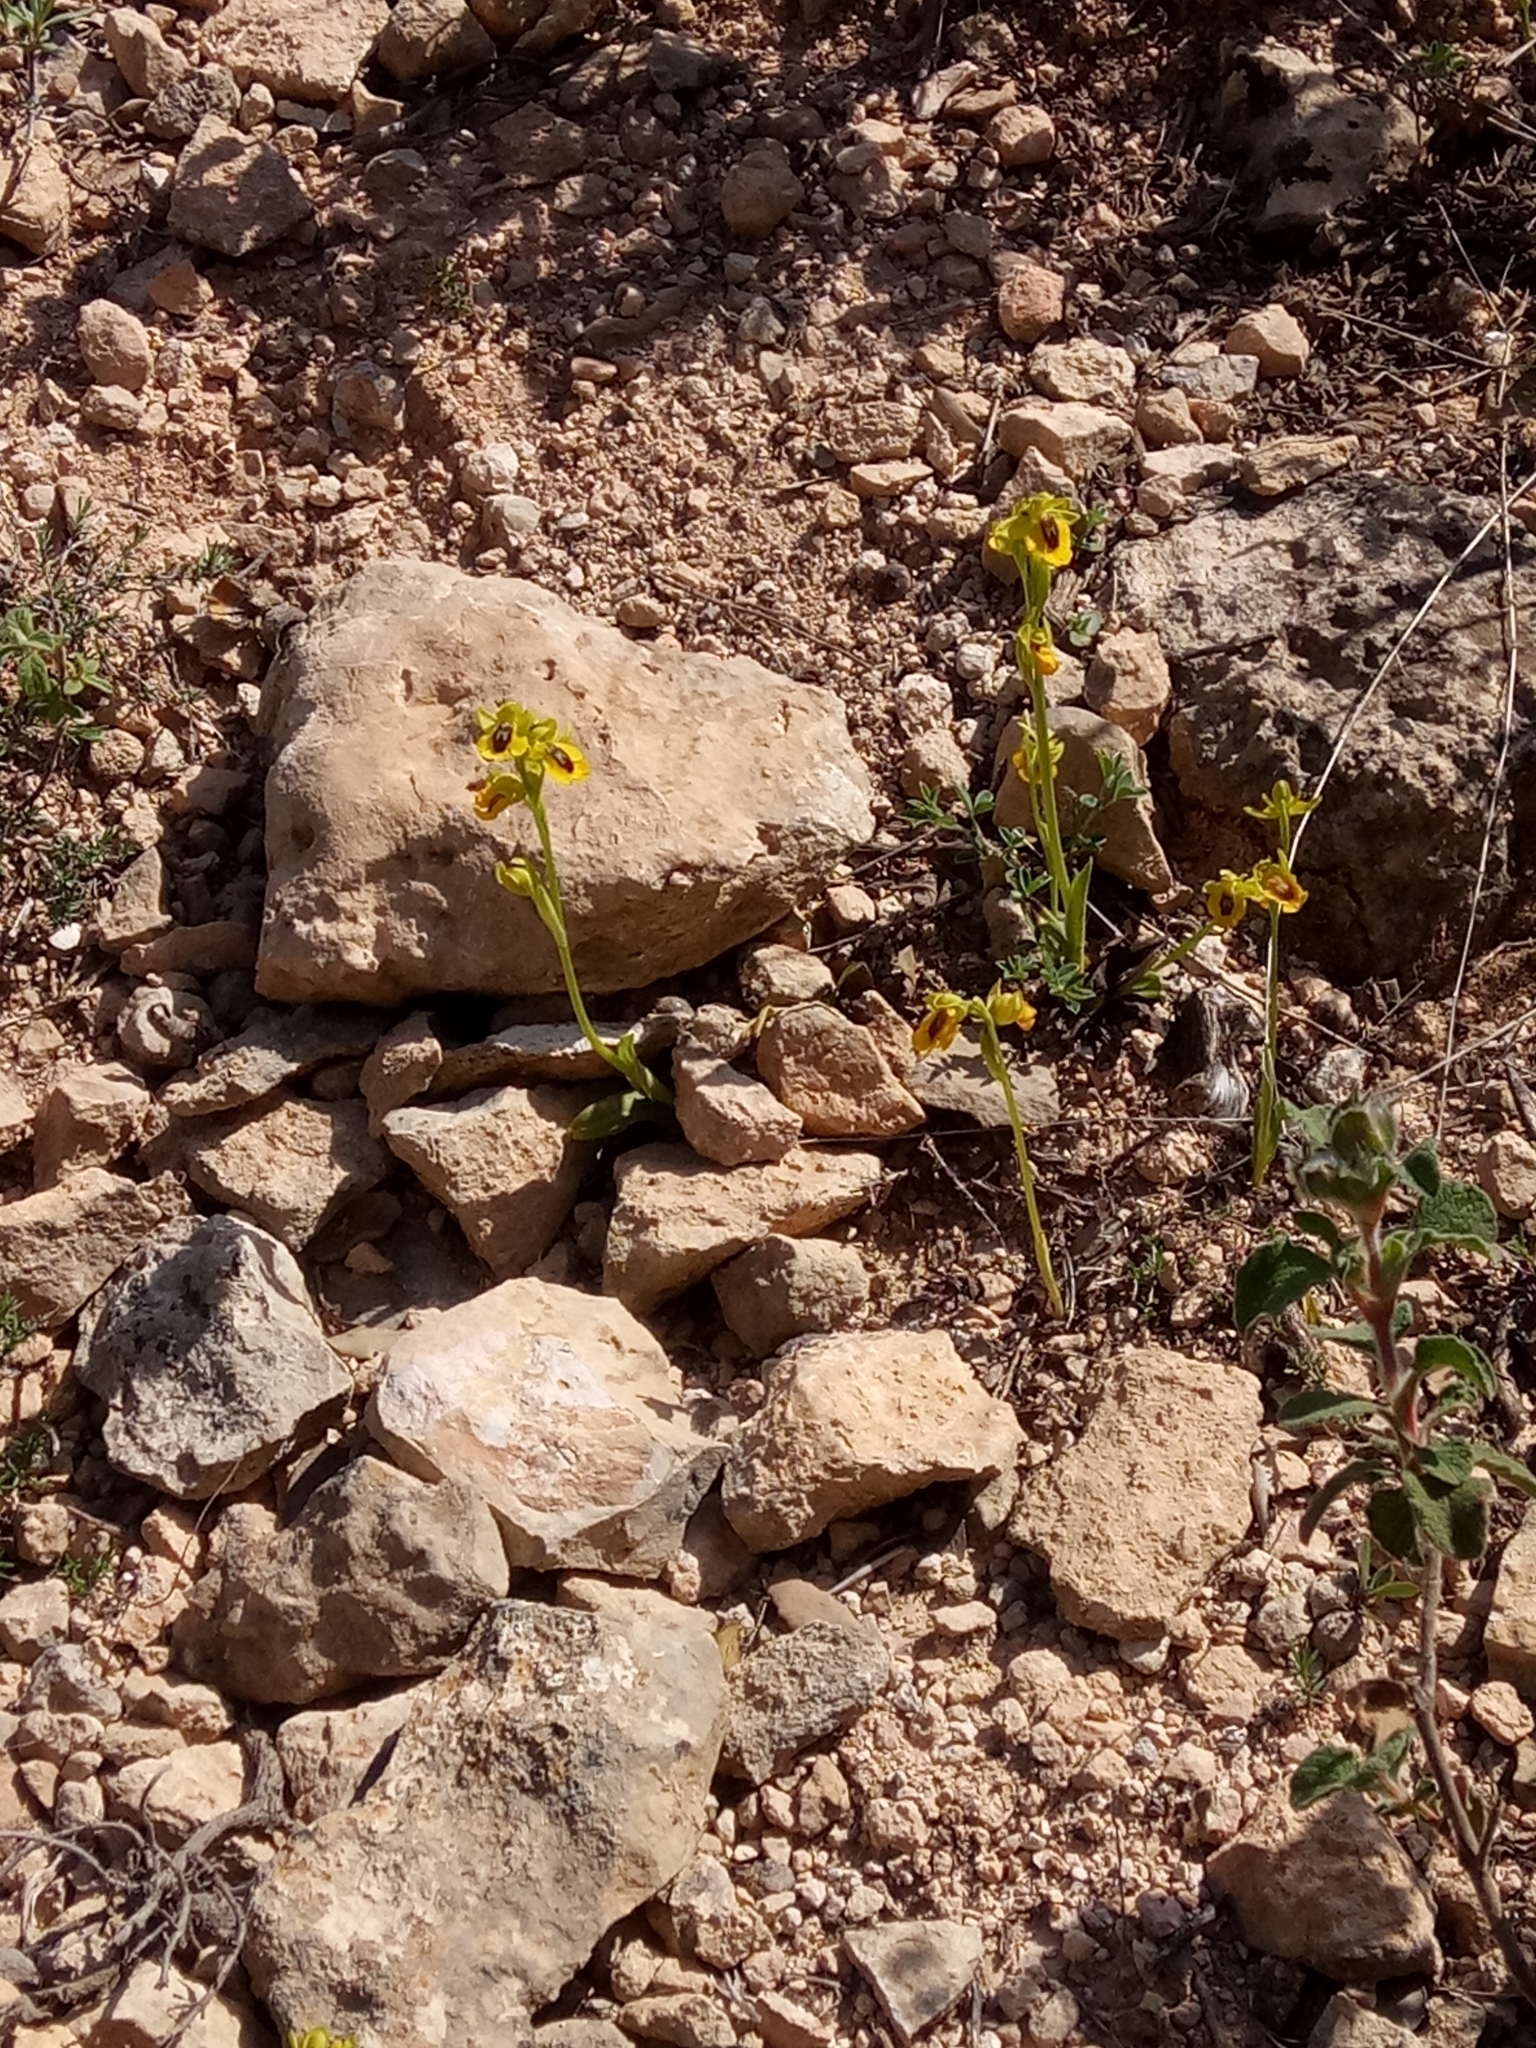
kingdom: Plantae
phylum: Tracheophyta
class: Liliopsida
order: Asparagales
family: Orchidaceae
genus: Ophrys
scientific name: Ophrys lutea
